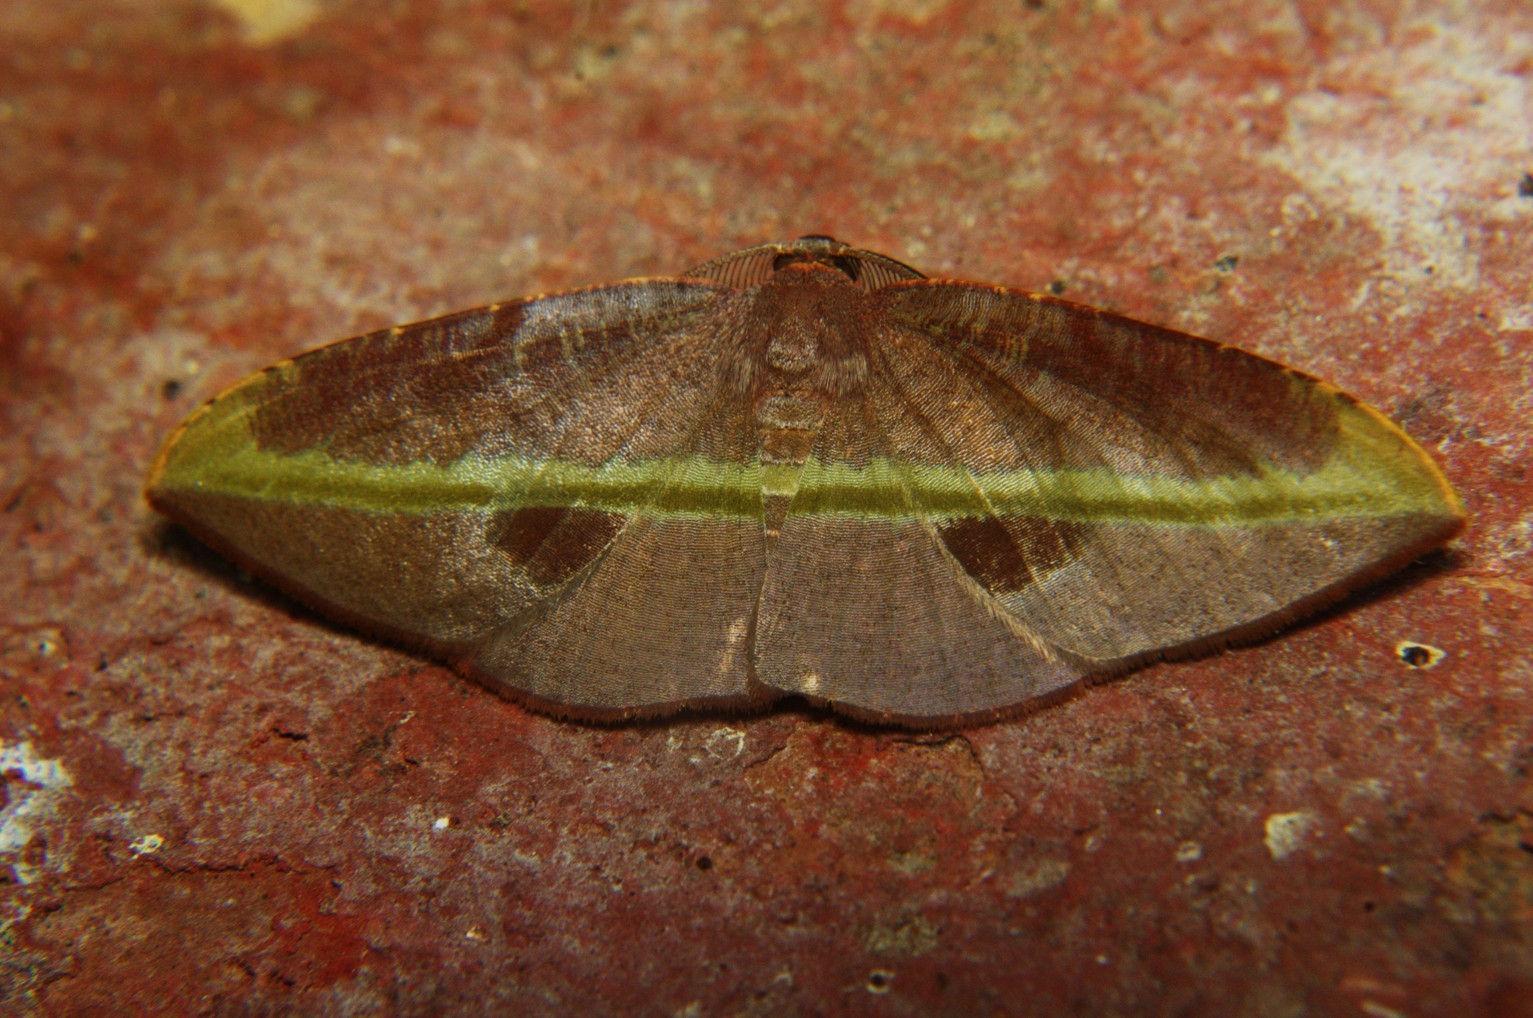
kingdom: Animalia
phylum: Arthropoda
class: Insecta
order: Lepidoptera
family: Geometridae
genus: Hypochrosis
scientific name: Hypochrosis iris
